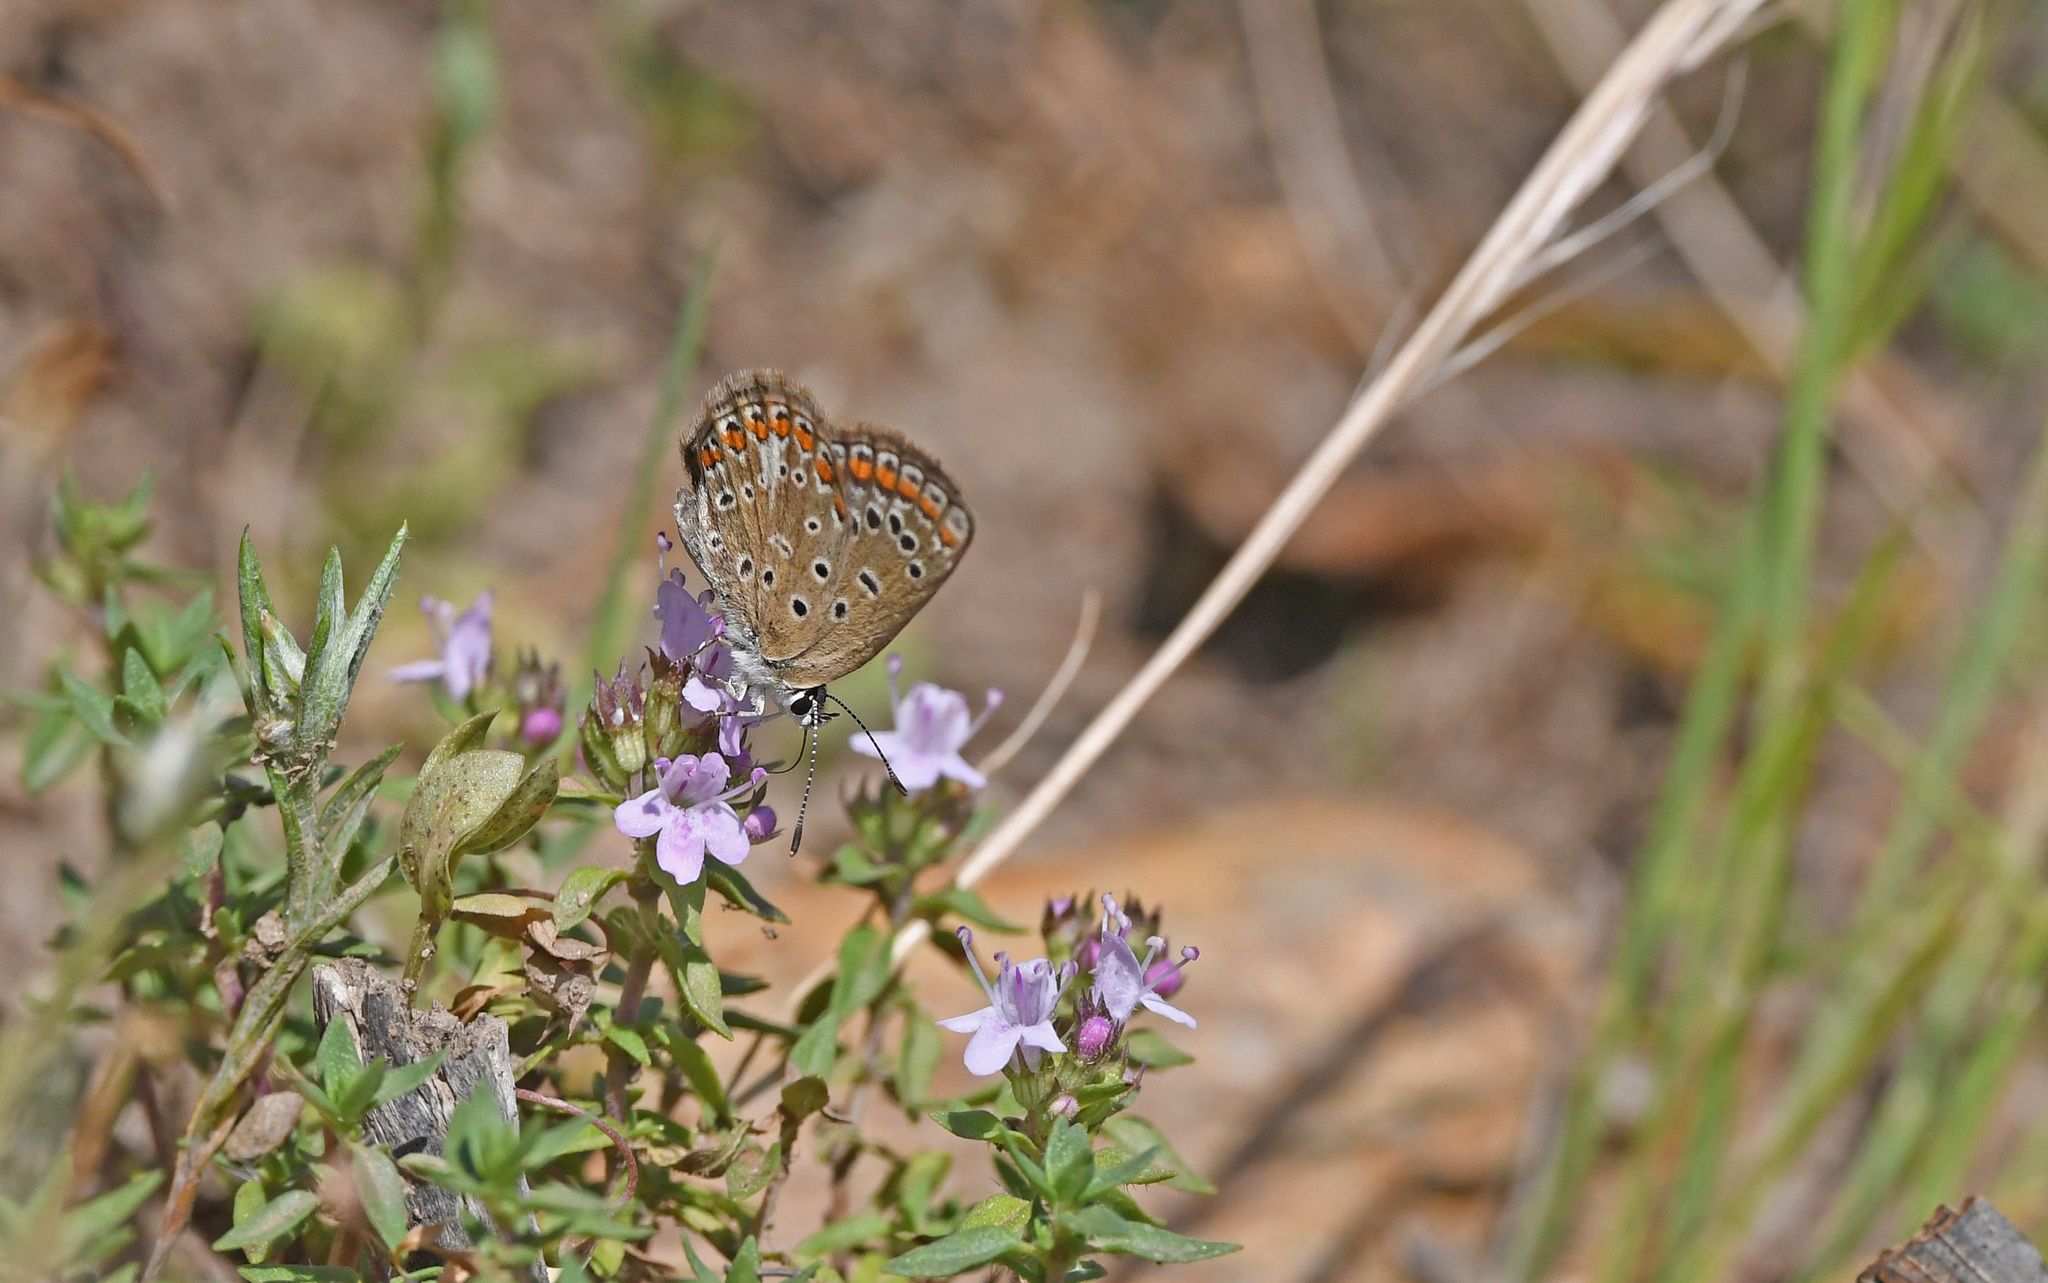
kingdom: Animalia
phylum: Arthropoda
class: Insecta
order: Lepidoptera
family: Lycaenidae
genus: Polyommatus
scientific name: Polyommatus celina
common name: Austaut's blue
